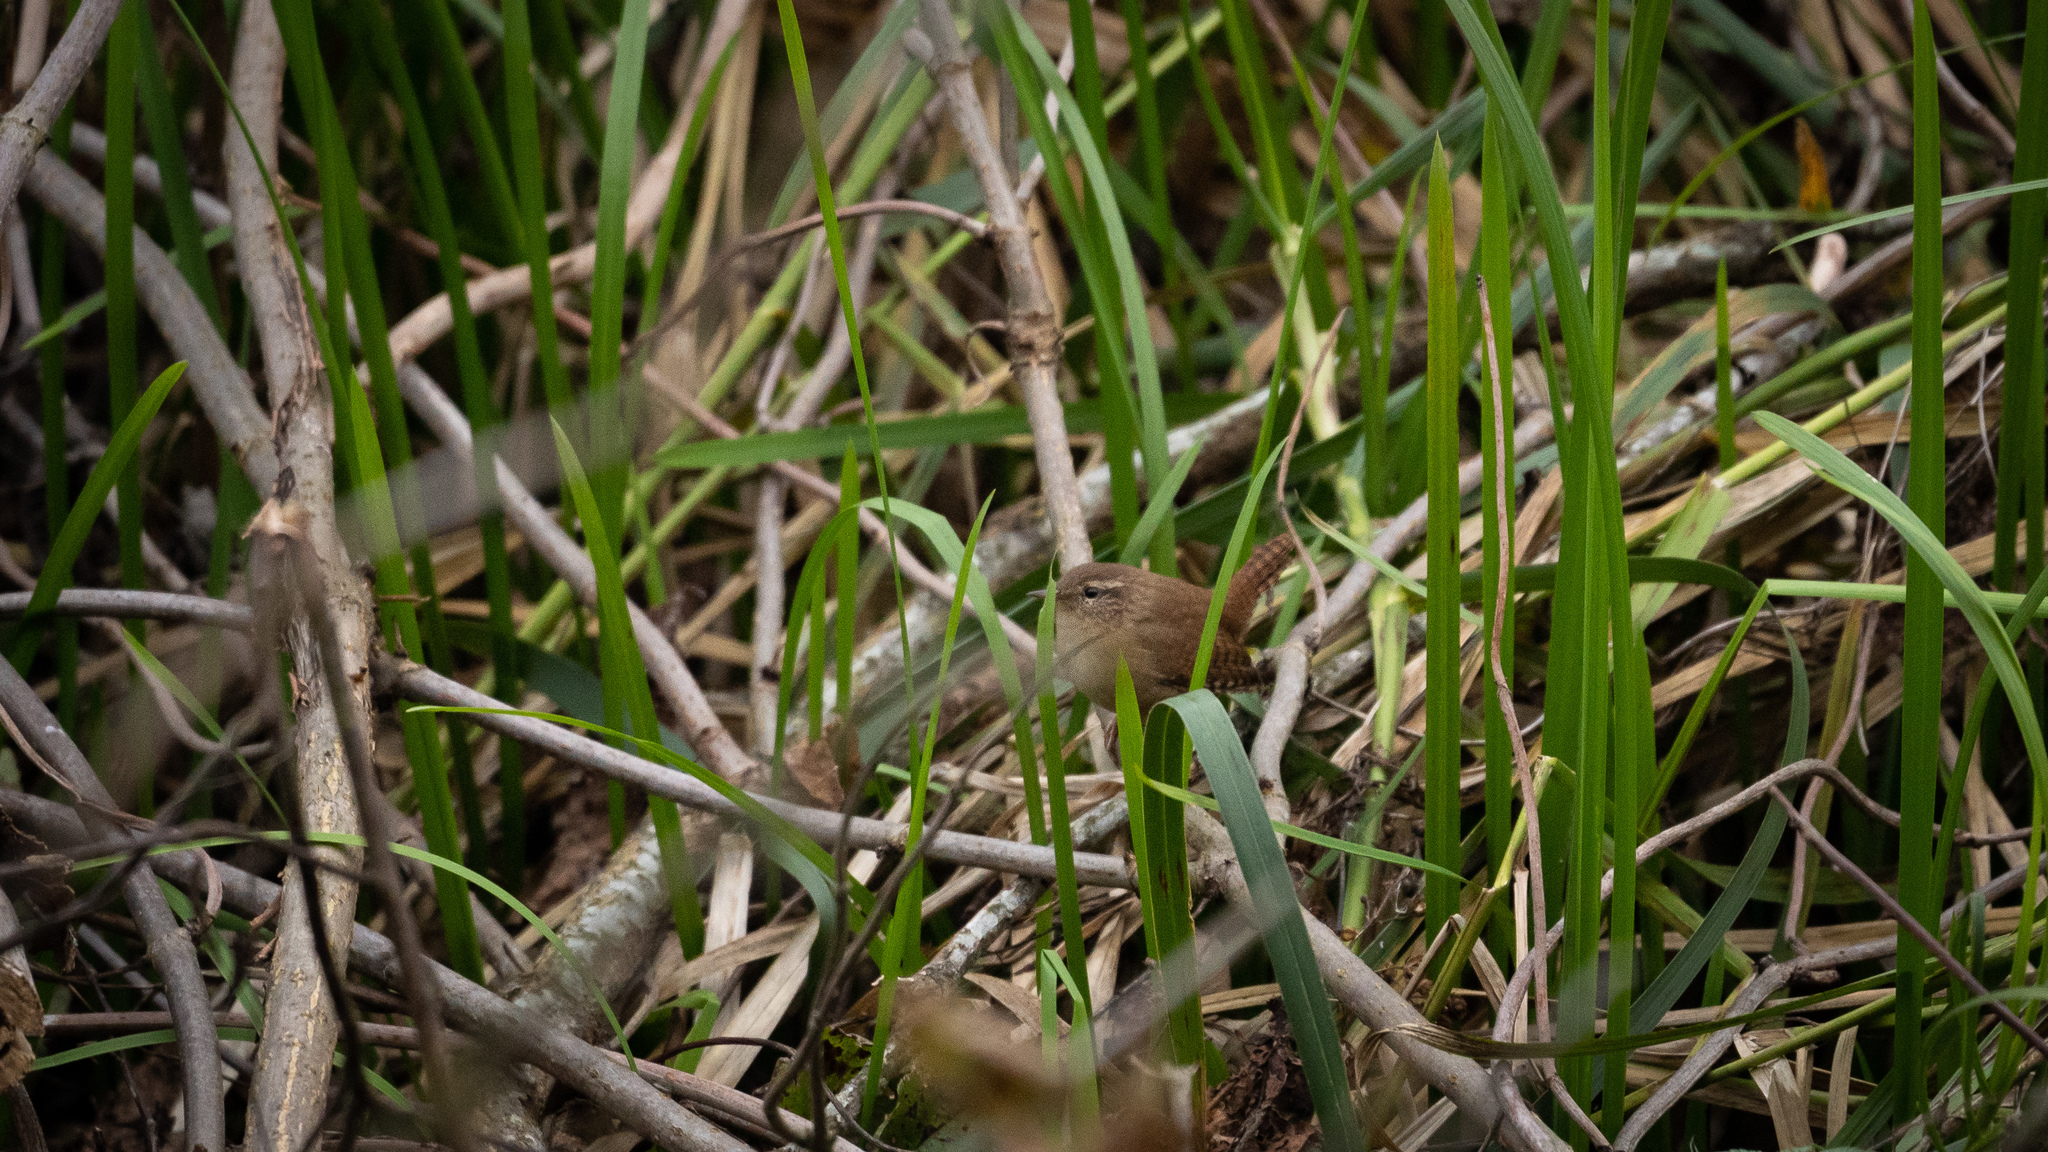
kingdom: Animalia
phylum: Chordata
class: Aves
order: Passeriformes
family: Troglodytidae
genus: Troglodytes
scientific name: Troglodytes troglodytes
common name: Eurasian wren
